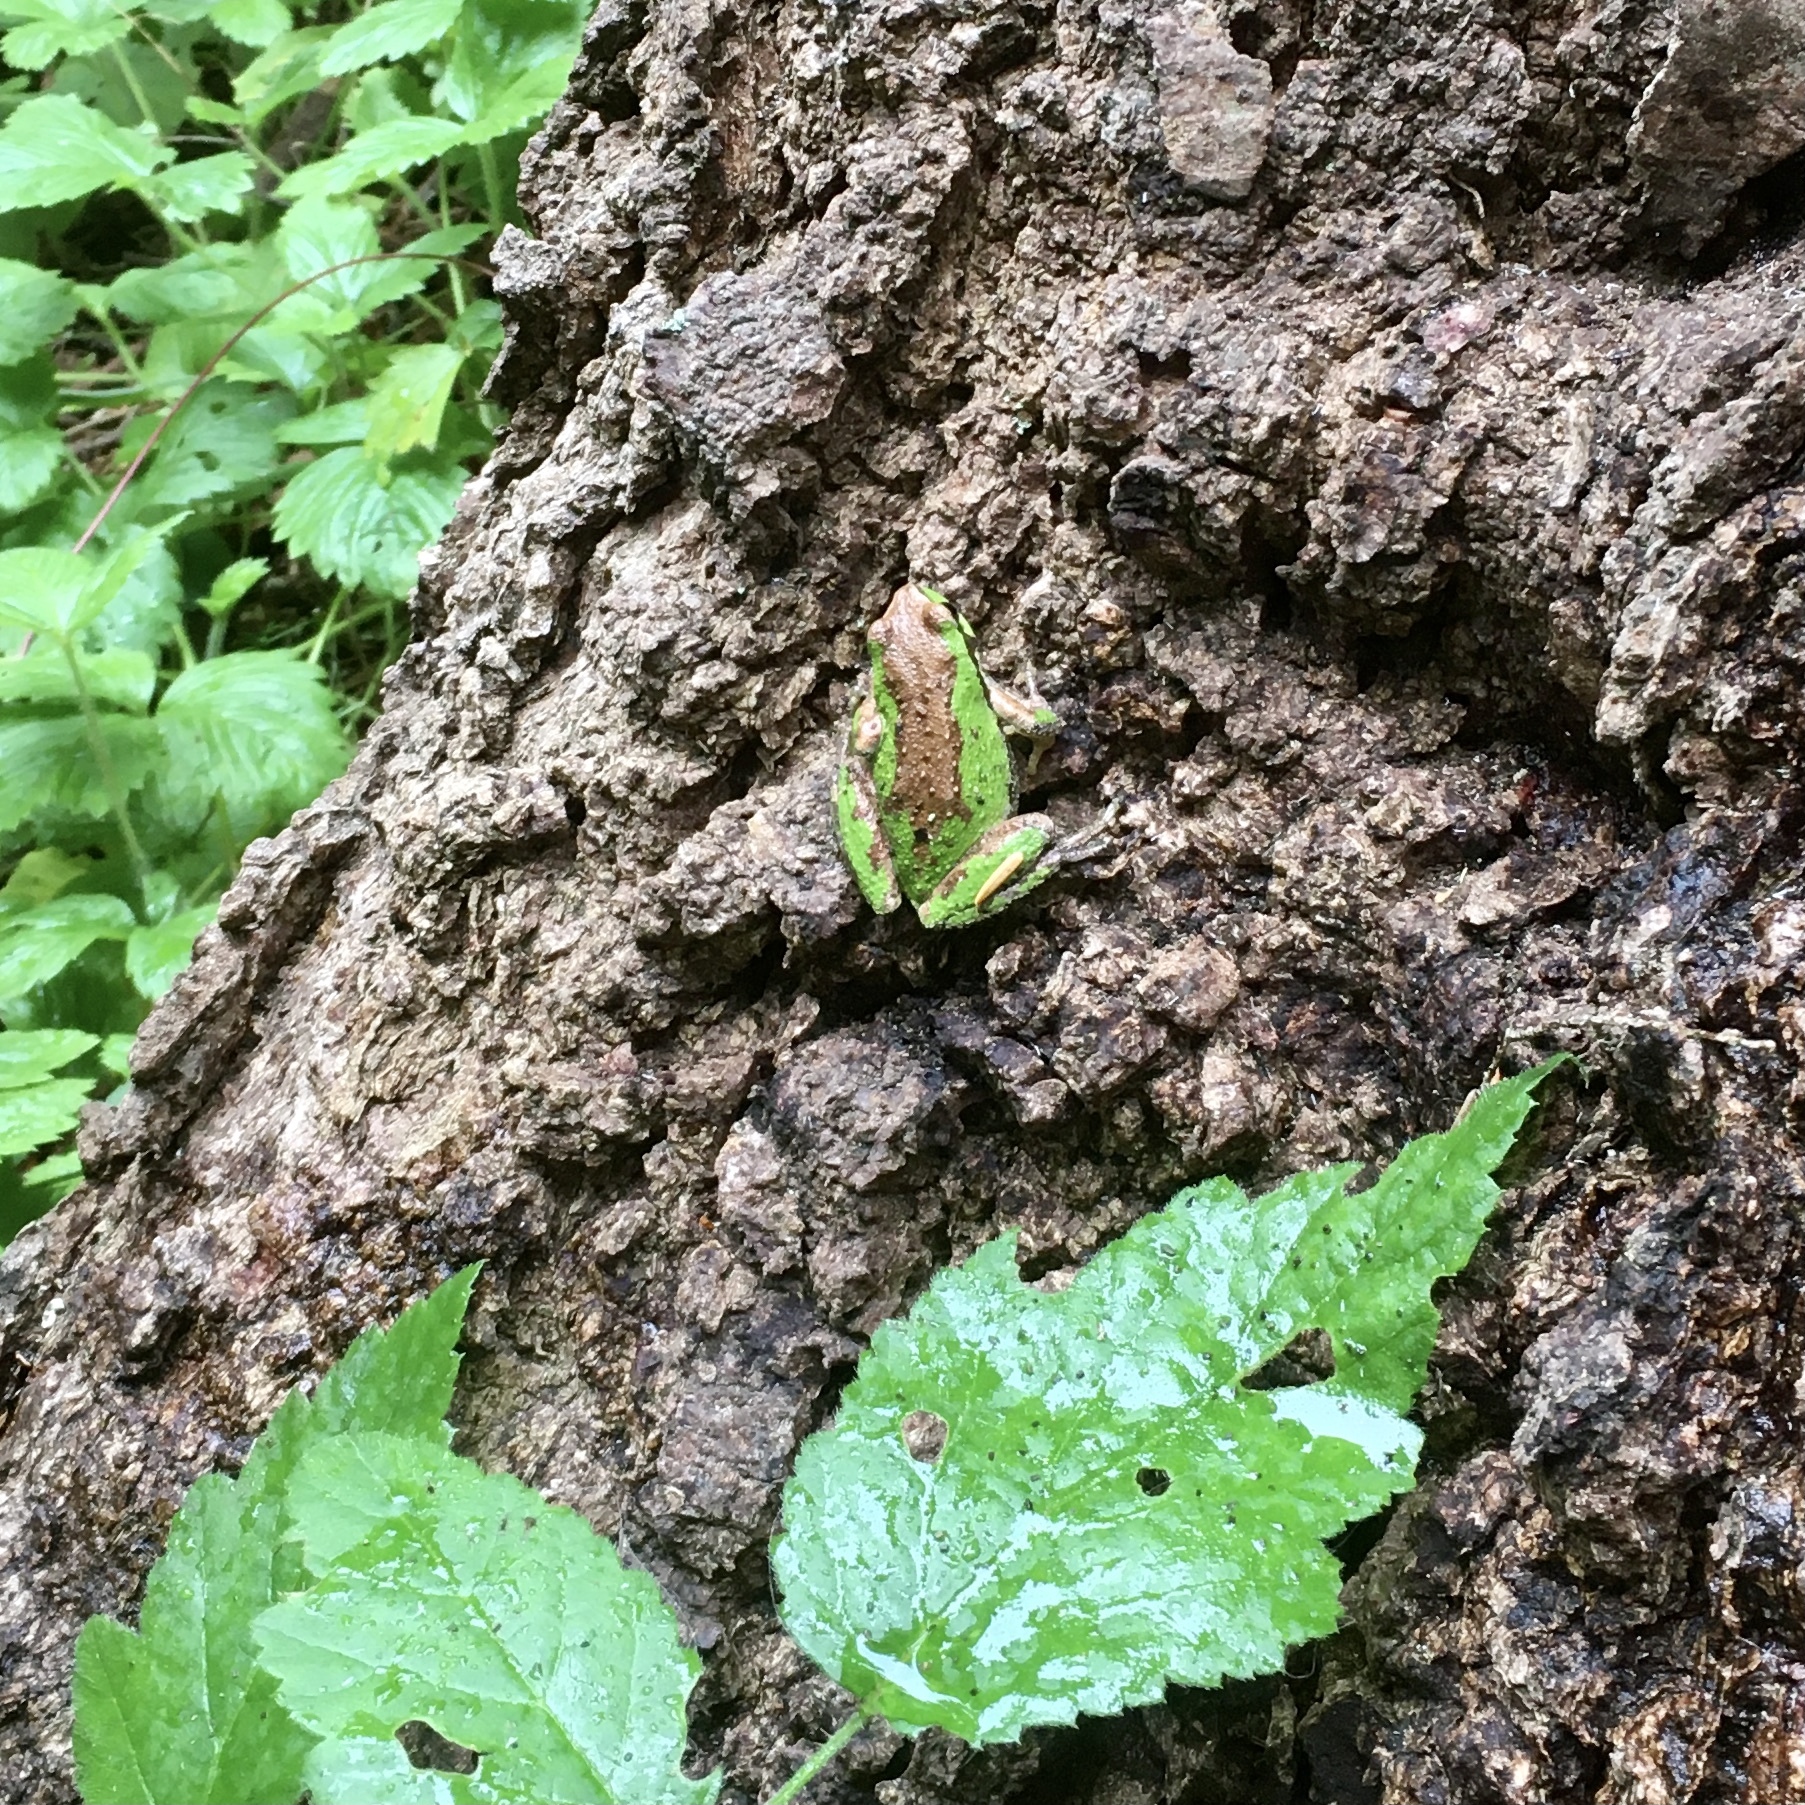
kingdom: Animalia
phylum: Chordata
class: Amphibia
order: Anura
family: Hylidae
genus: Pseudacris
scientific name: Pseudacris regilla
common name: Pacific chorus frog
